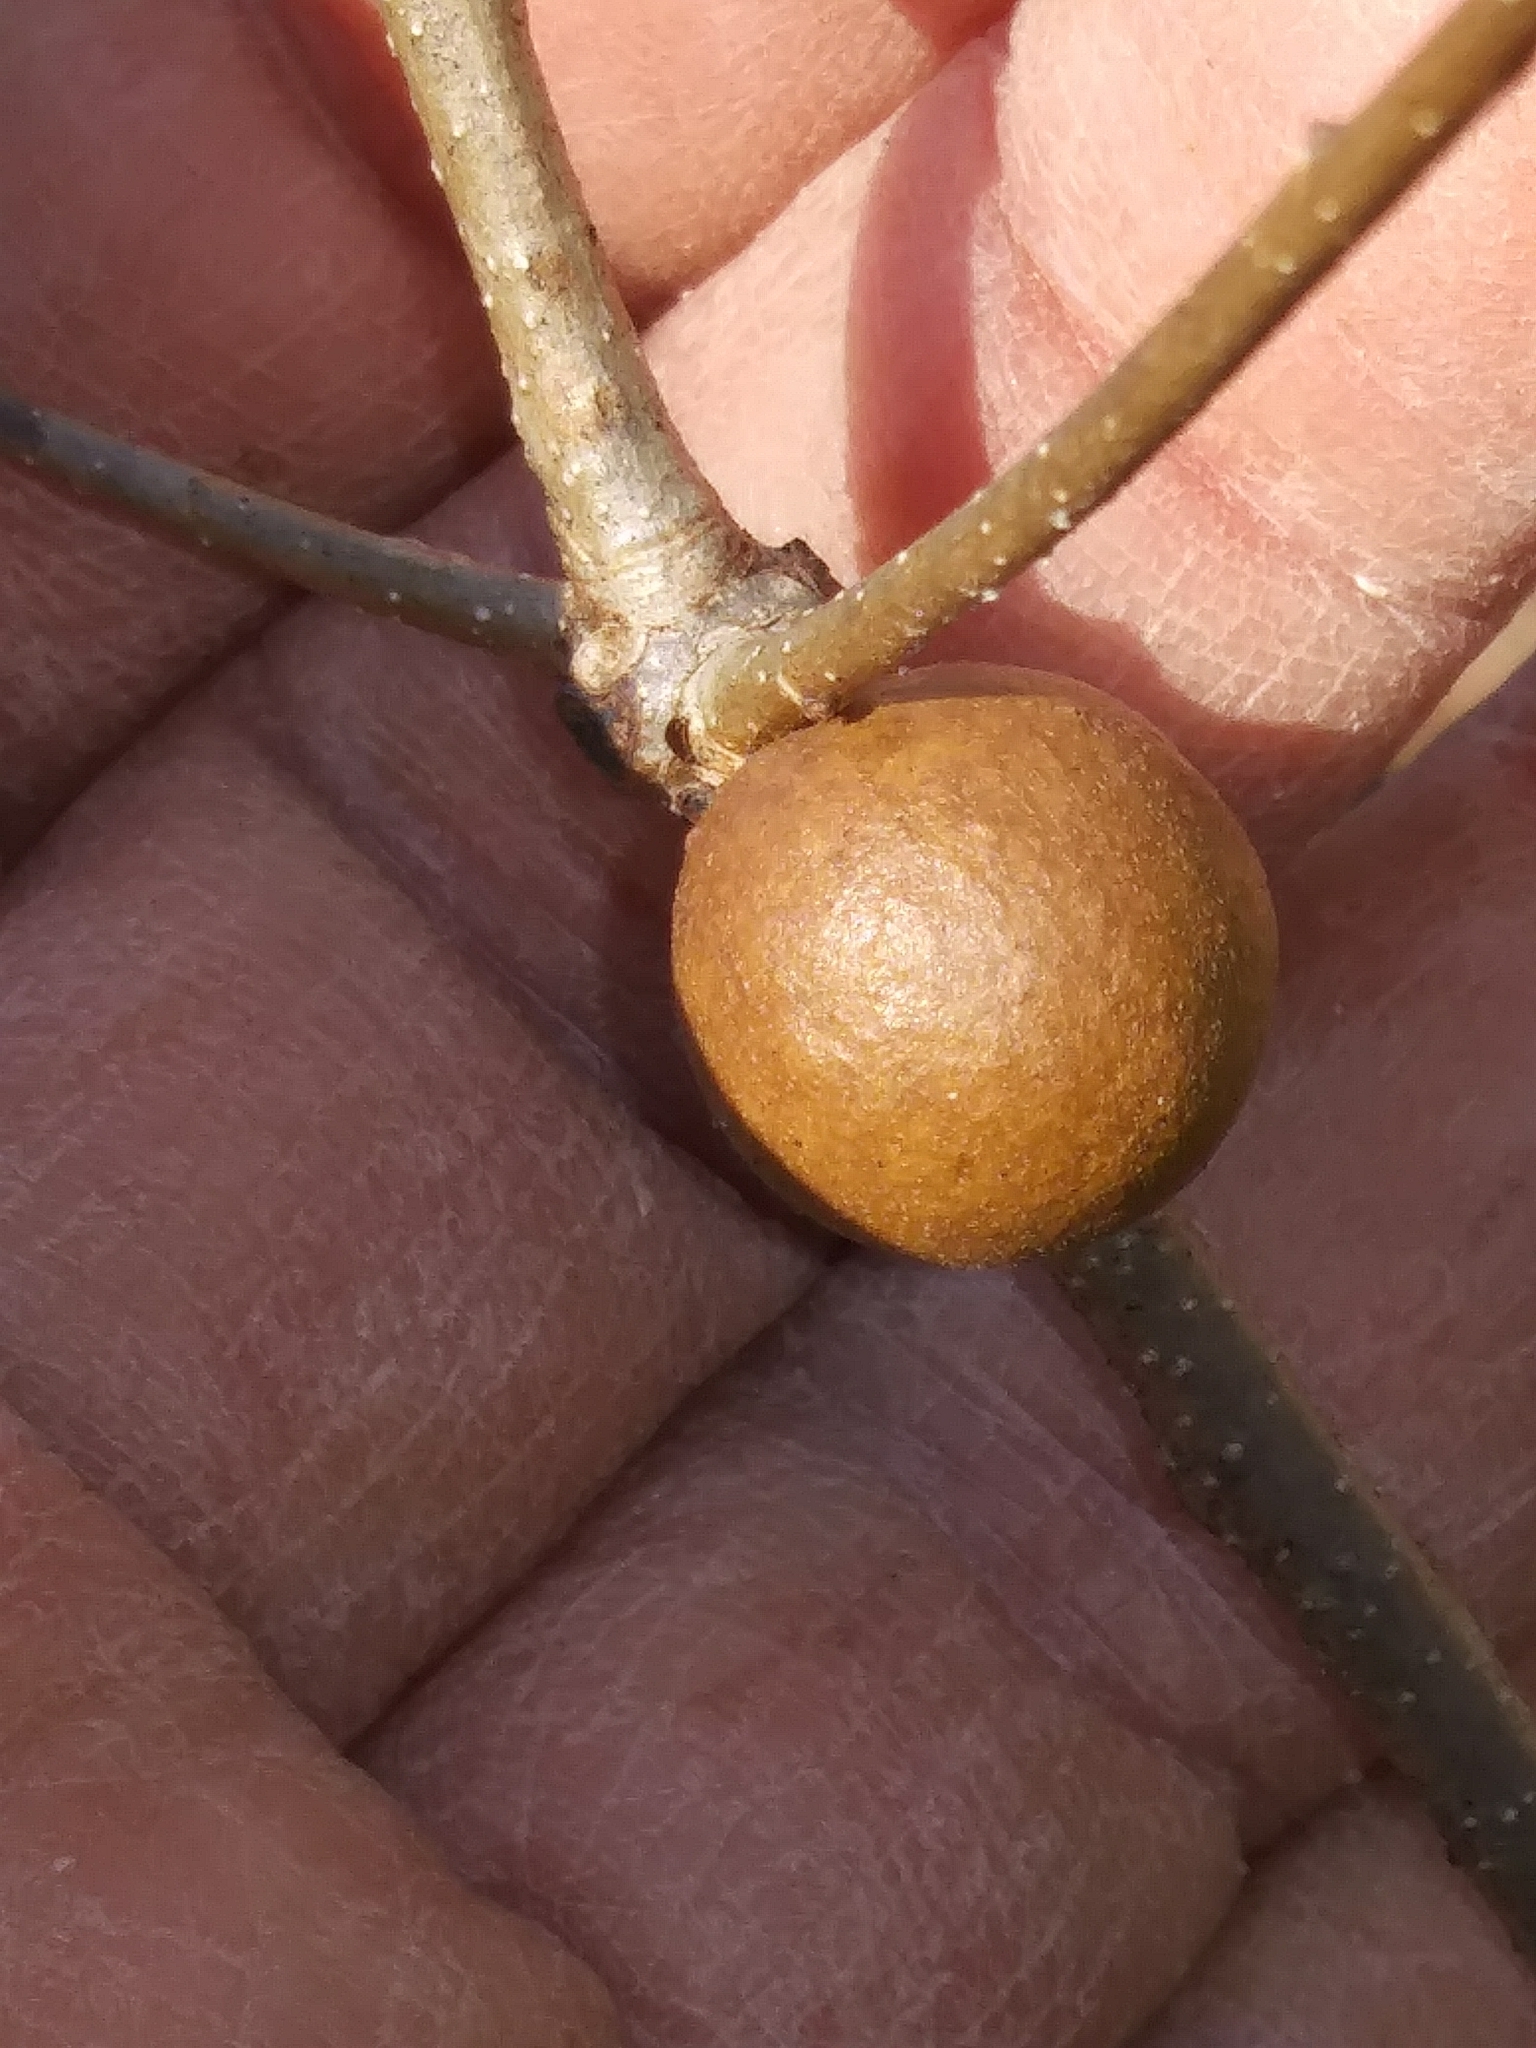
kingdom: Animalia
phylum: Arthropoda
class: Insecta
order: Hymenoptera
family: Cynipidae
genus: Disholcaspis
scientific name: Disholcaspis quercusglobulus
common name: Round bullet gall wasp
